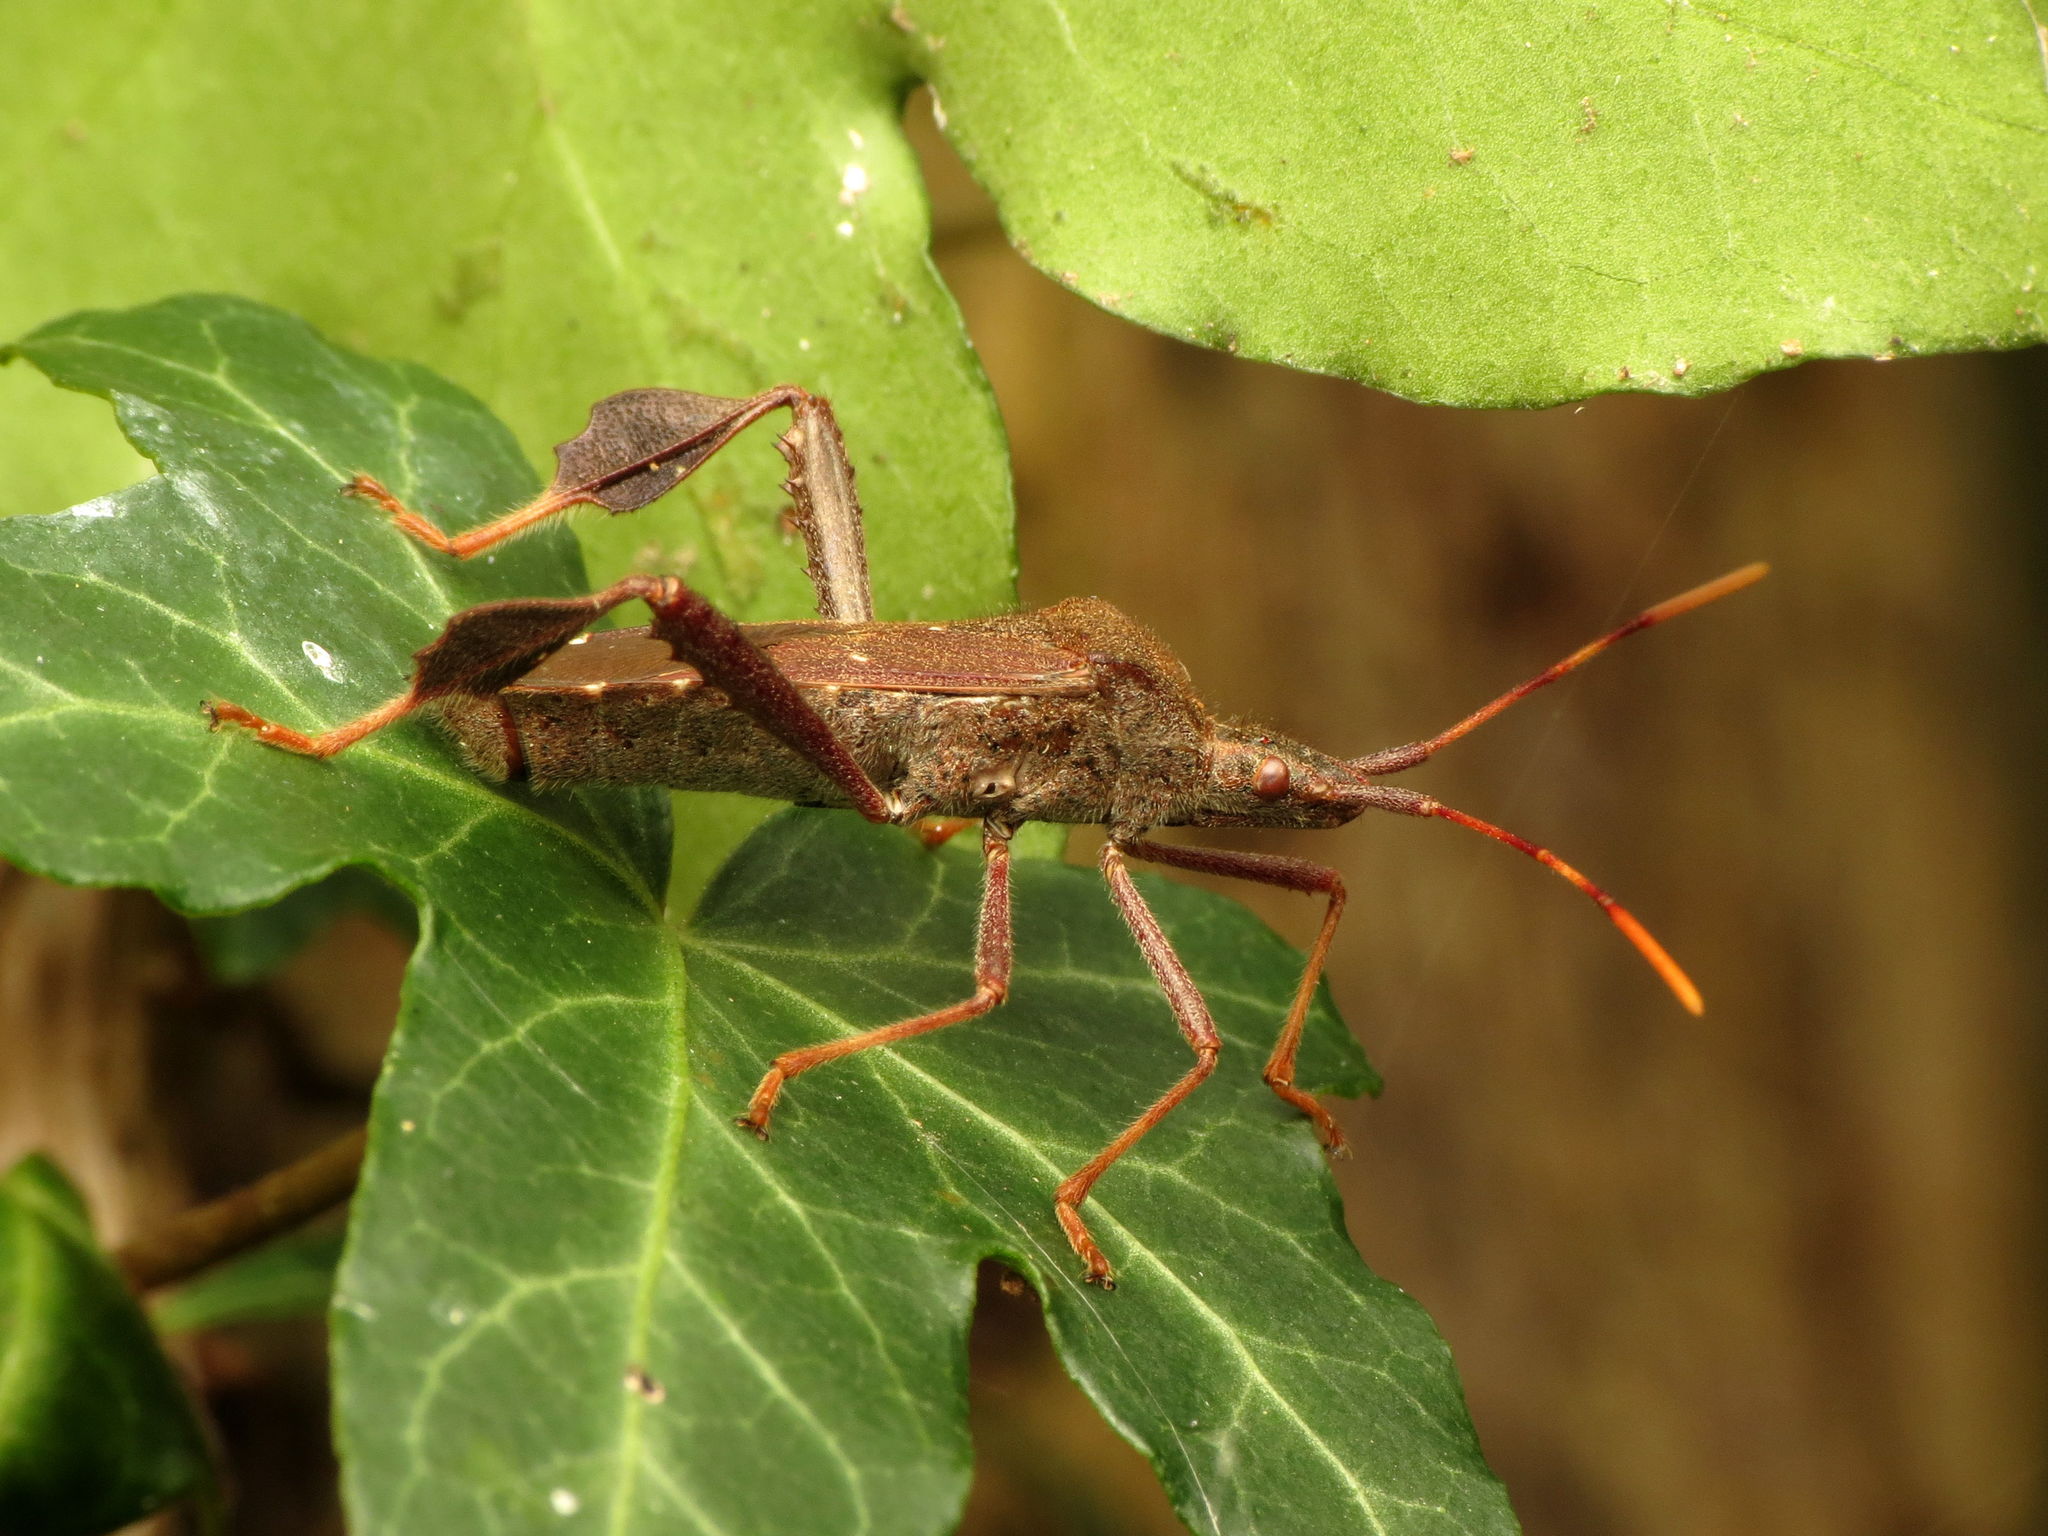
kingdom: Animalia
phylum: Arthropoda
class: Insecta
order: Hemiptera
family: Coreidae
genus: Leptoglossus
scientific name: Leptoglossus oppositus
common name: Northern leaf-footed bug
